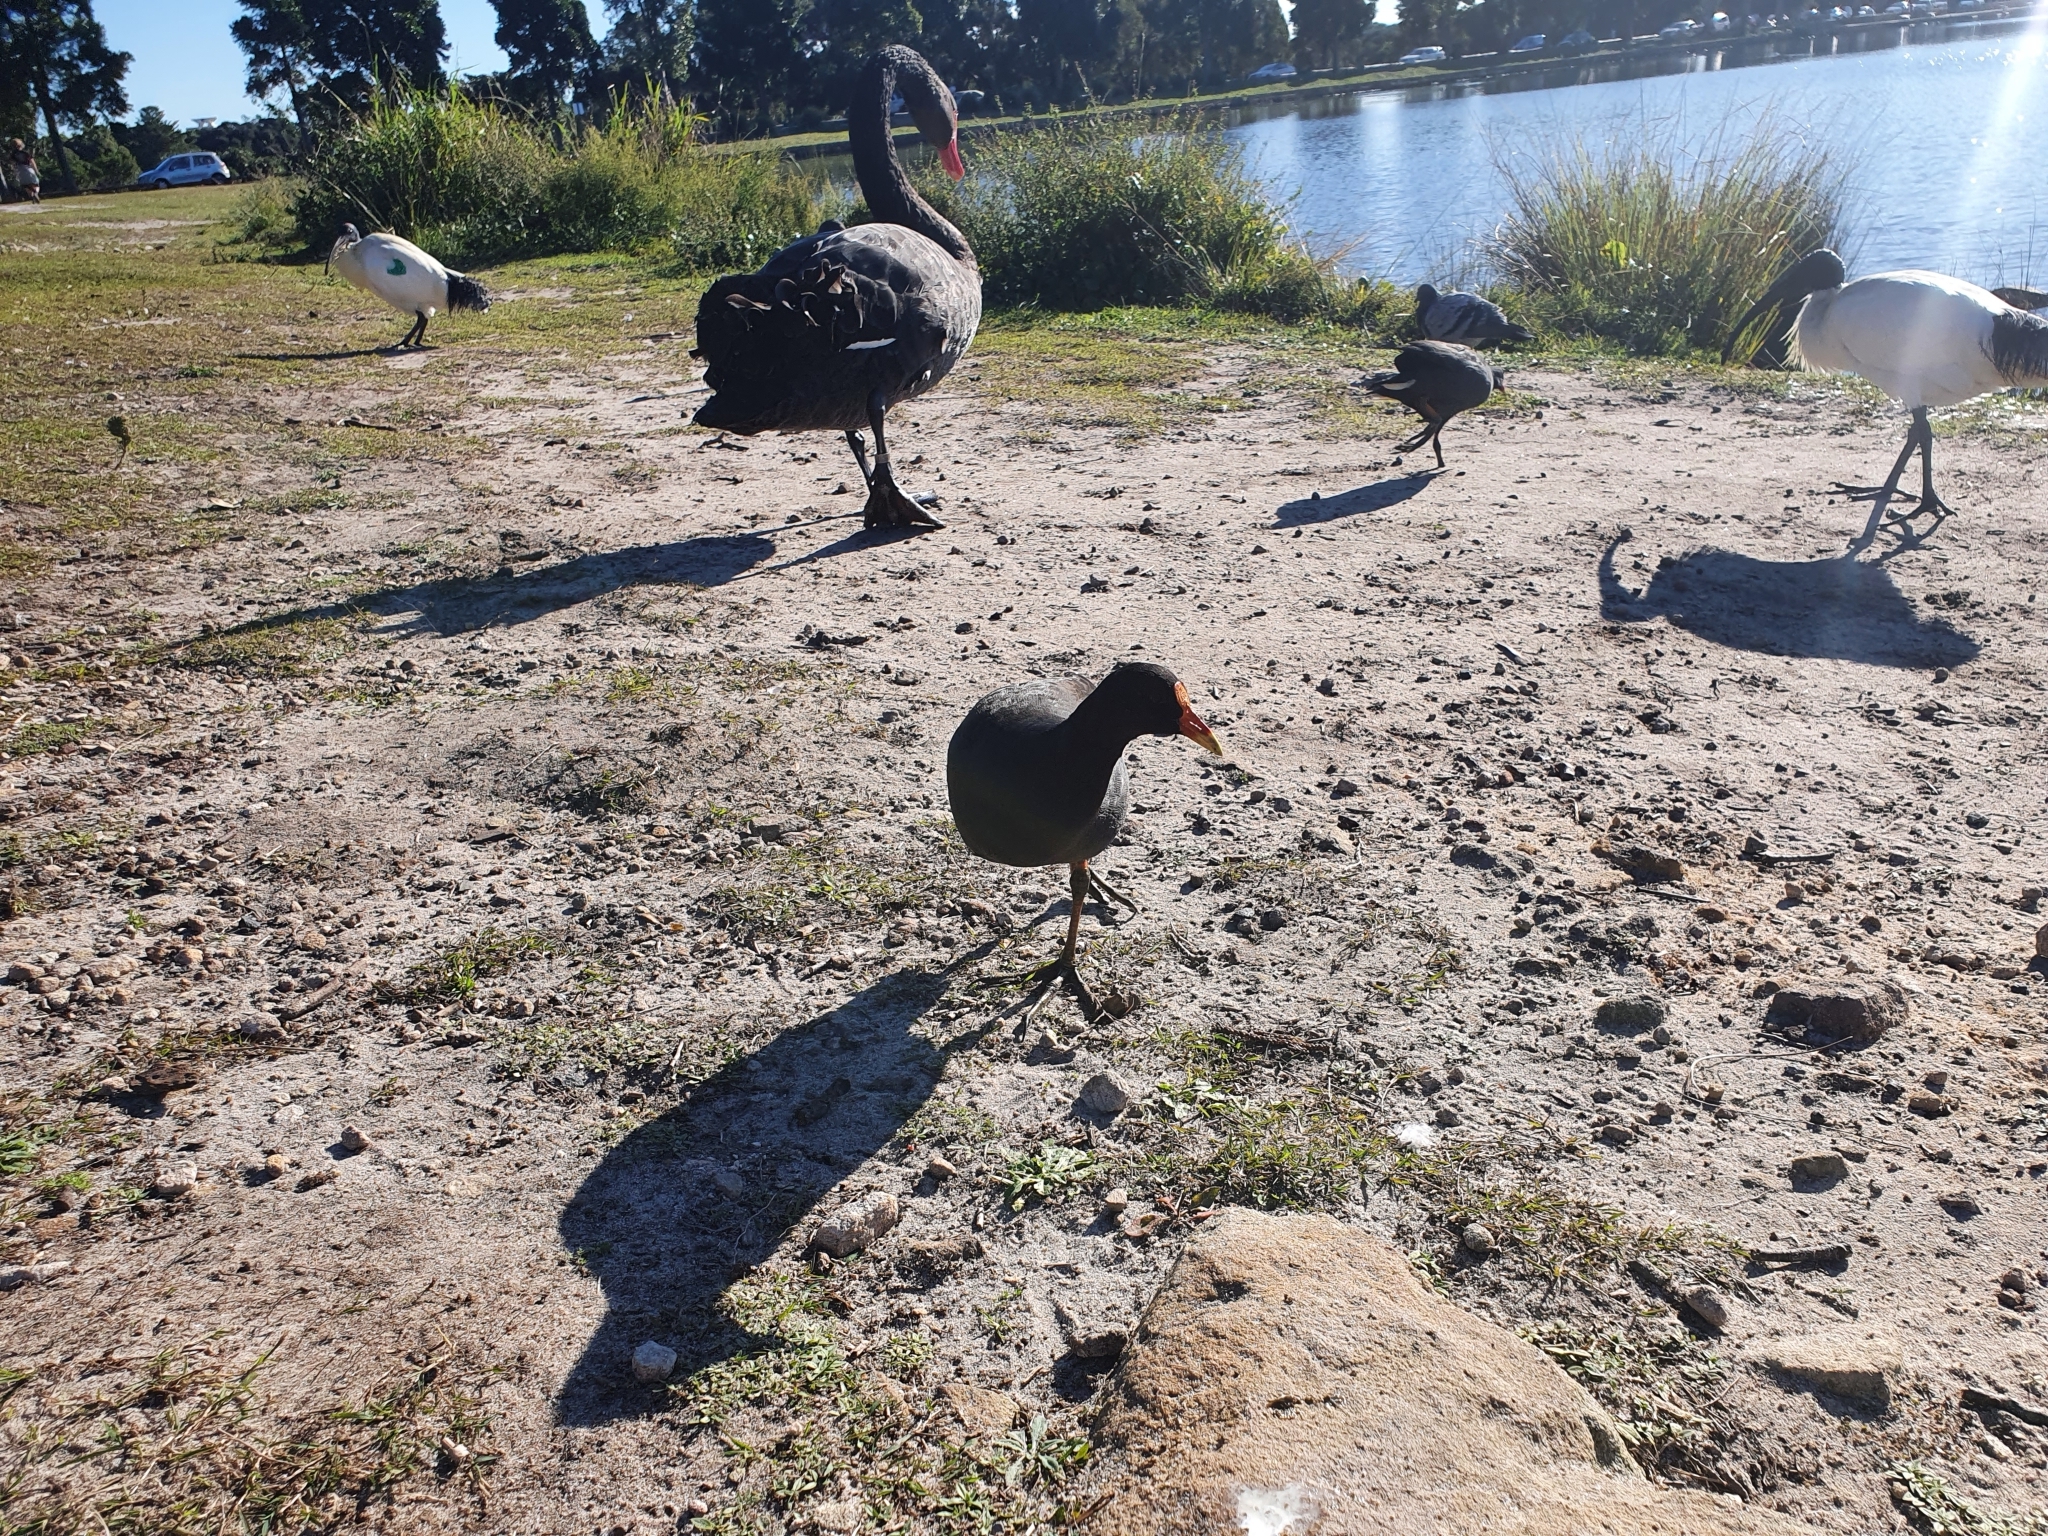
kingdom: Animalia
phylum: Chordata
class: Aves
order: Anseriformes
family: Anatidae
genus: Cygnus
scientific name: Cygnus atratus
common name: Black swan
